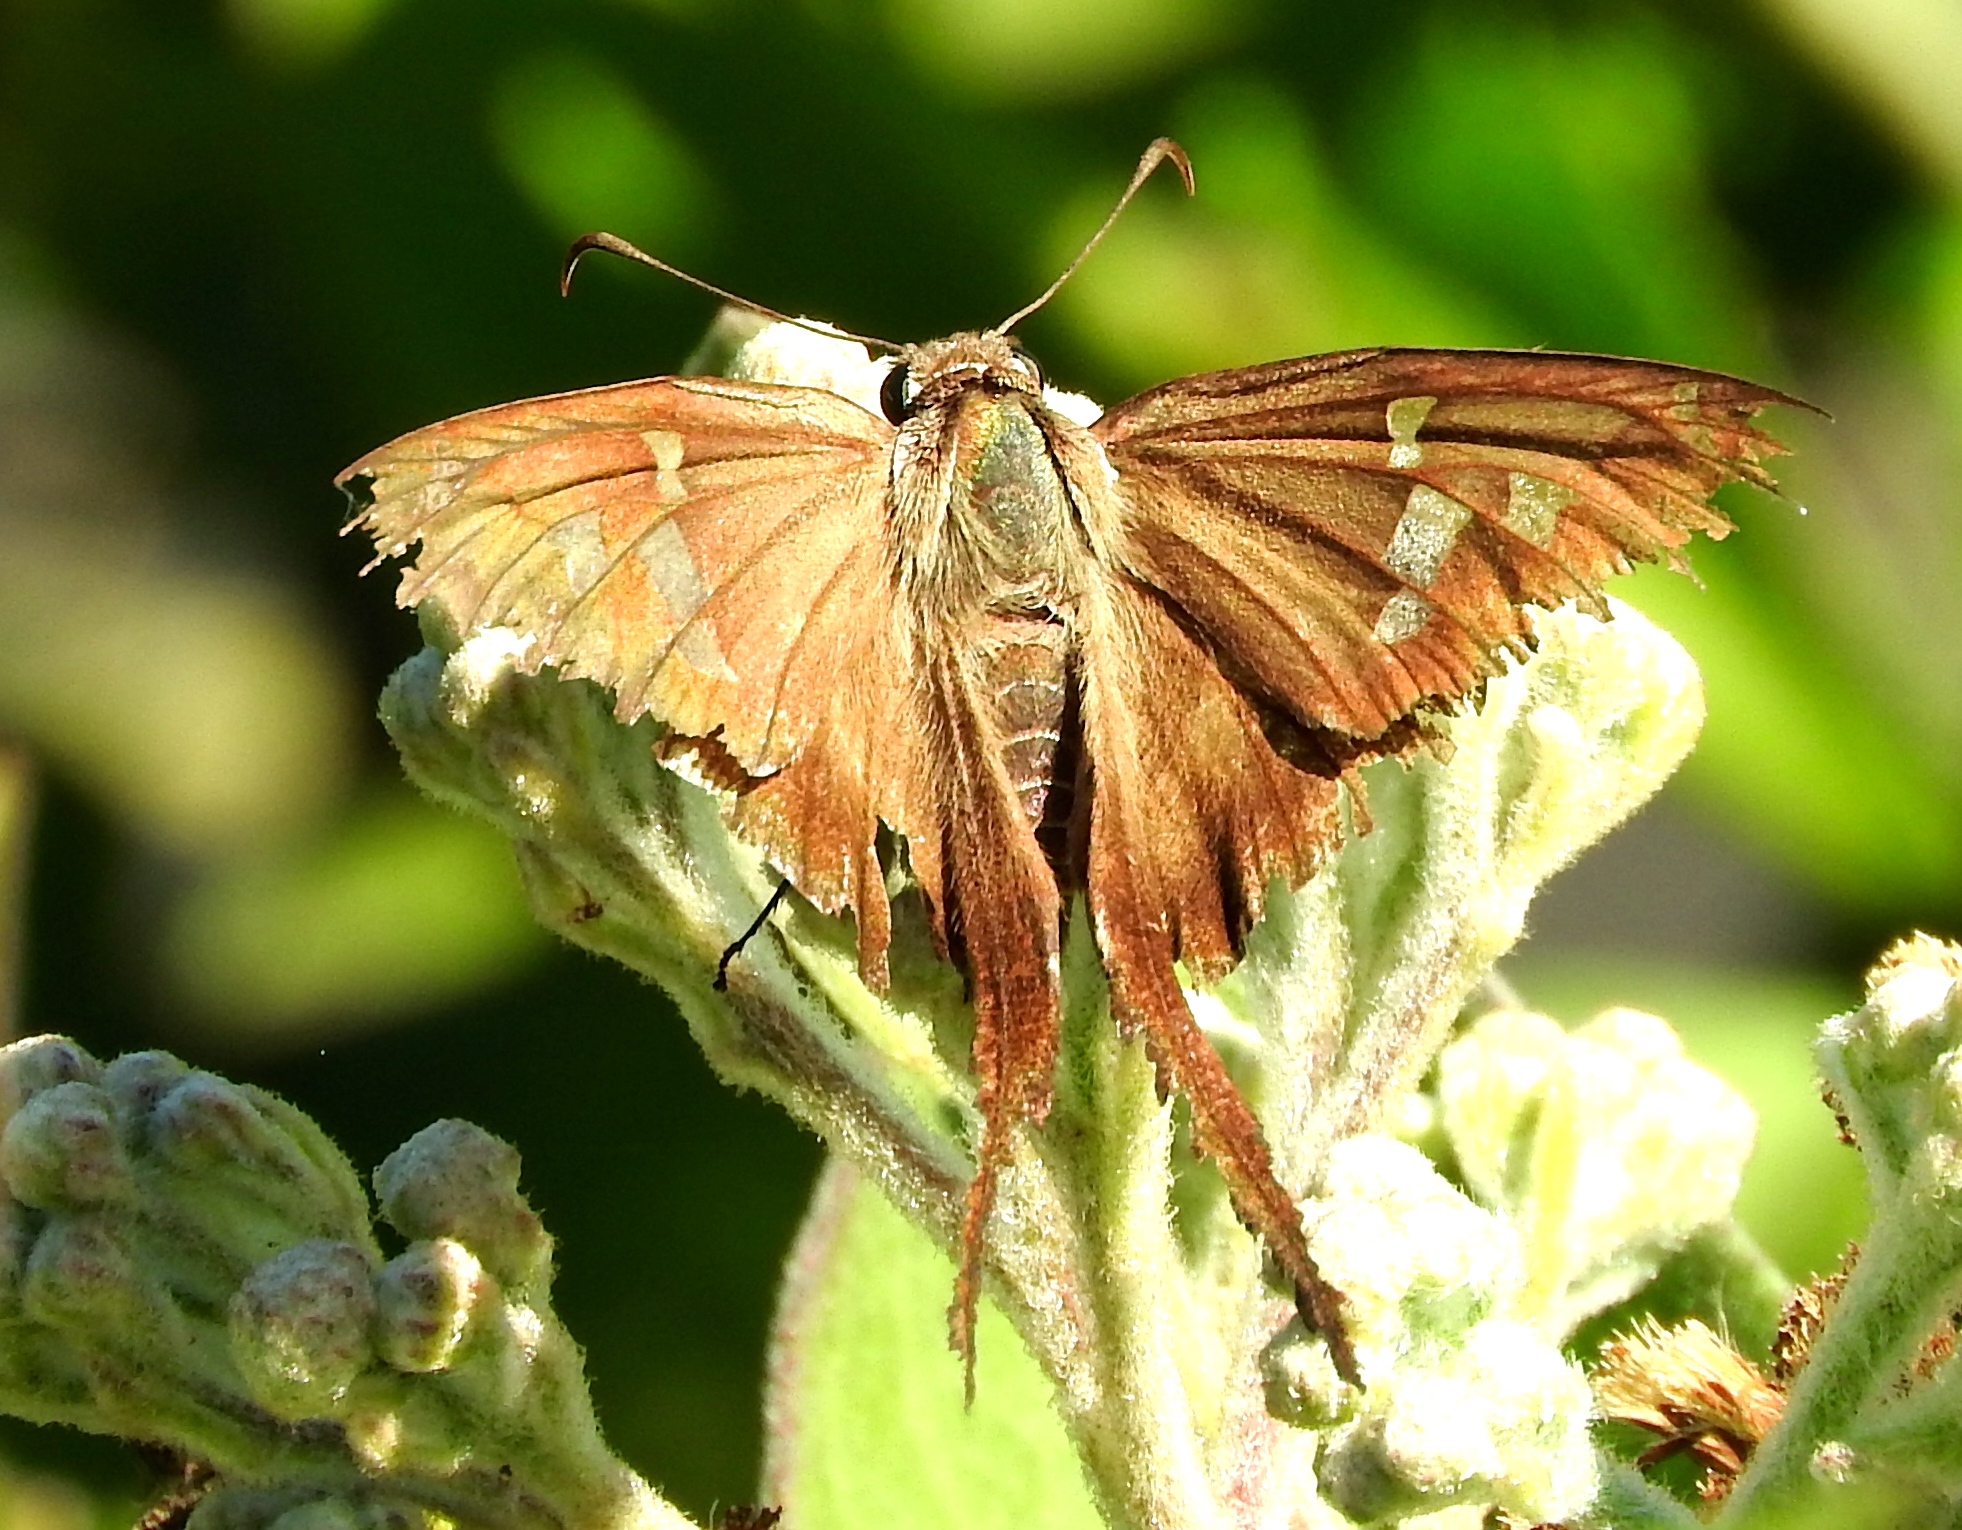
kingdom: Animalia
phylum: Arthropoda
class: Insecta
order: Lepidoptera
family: Hesperiidae
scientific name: Hesperiidae
